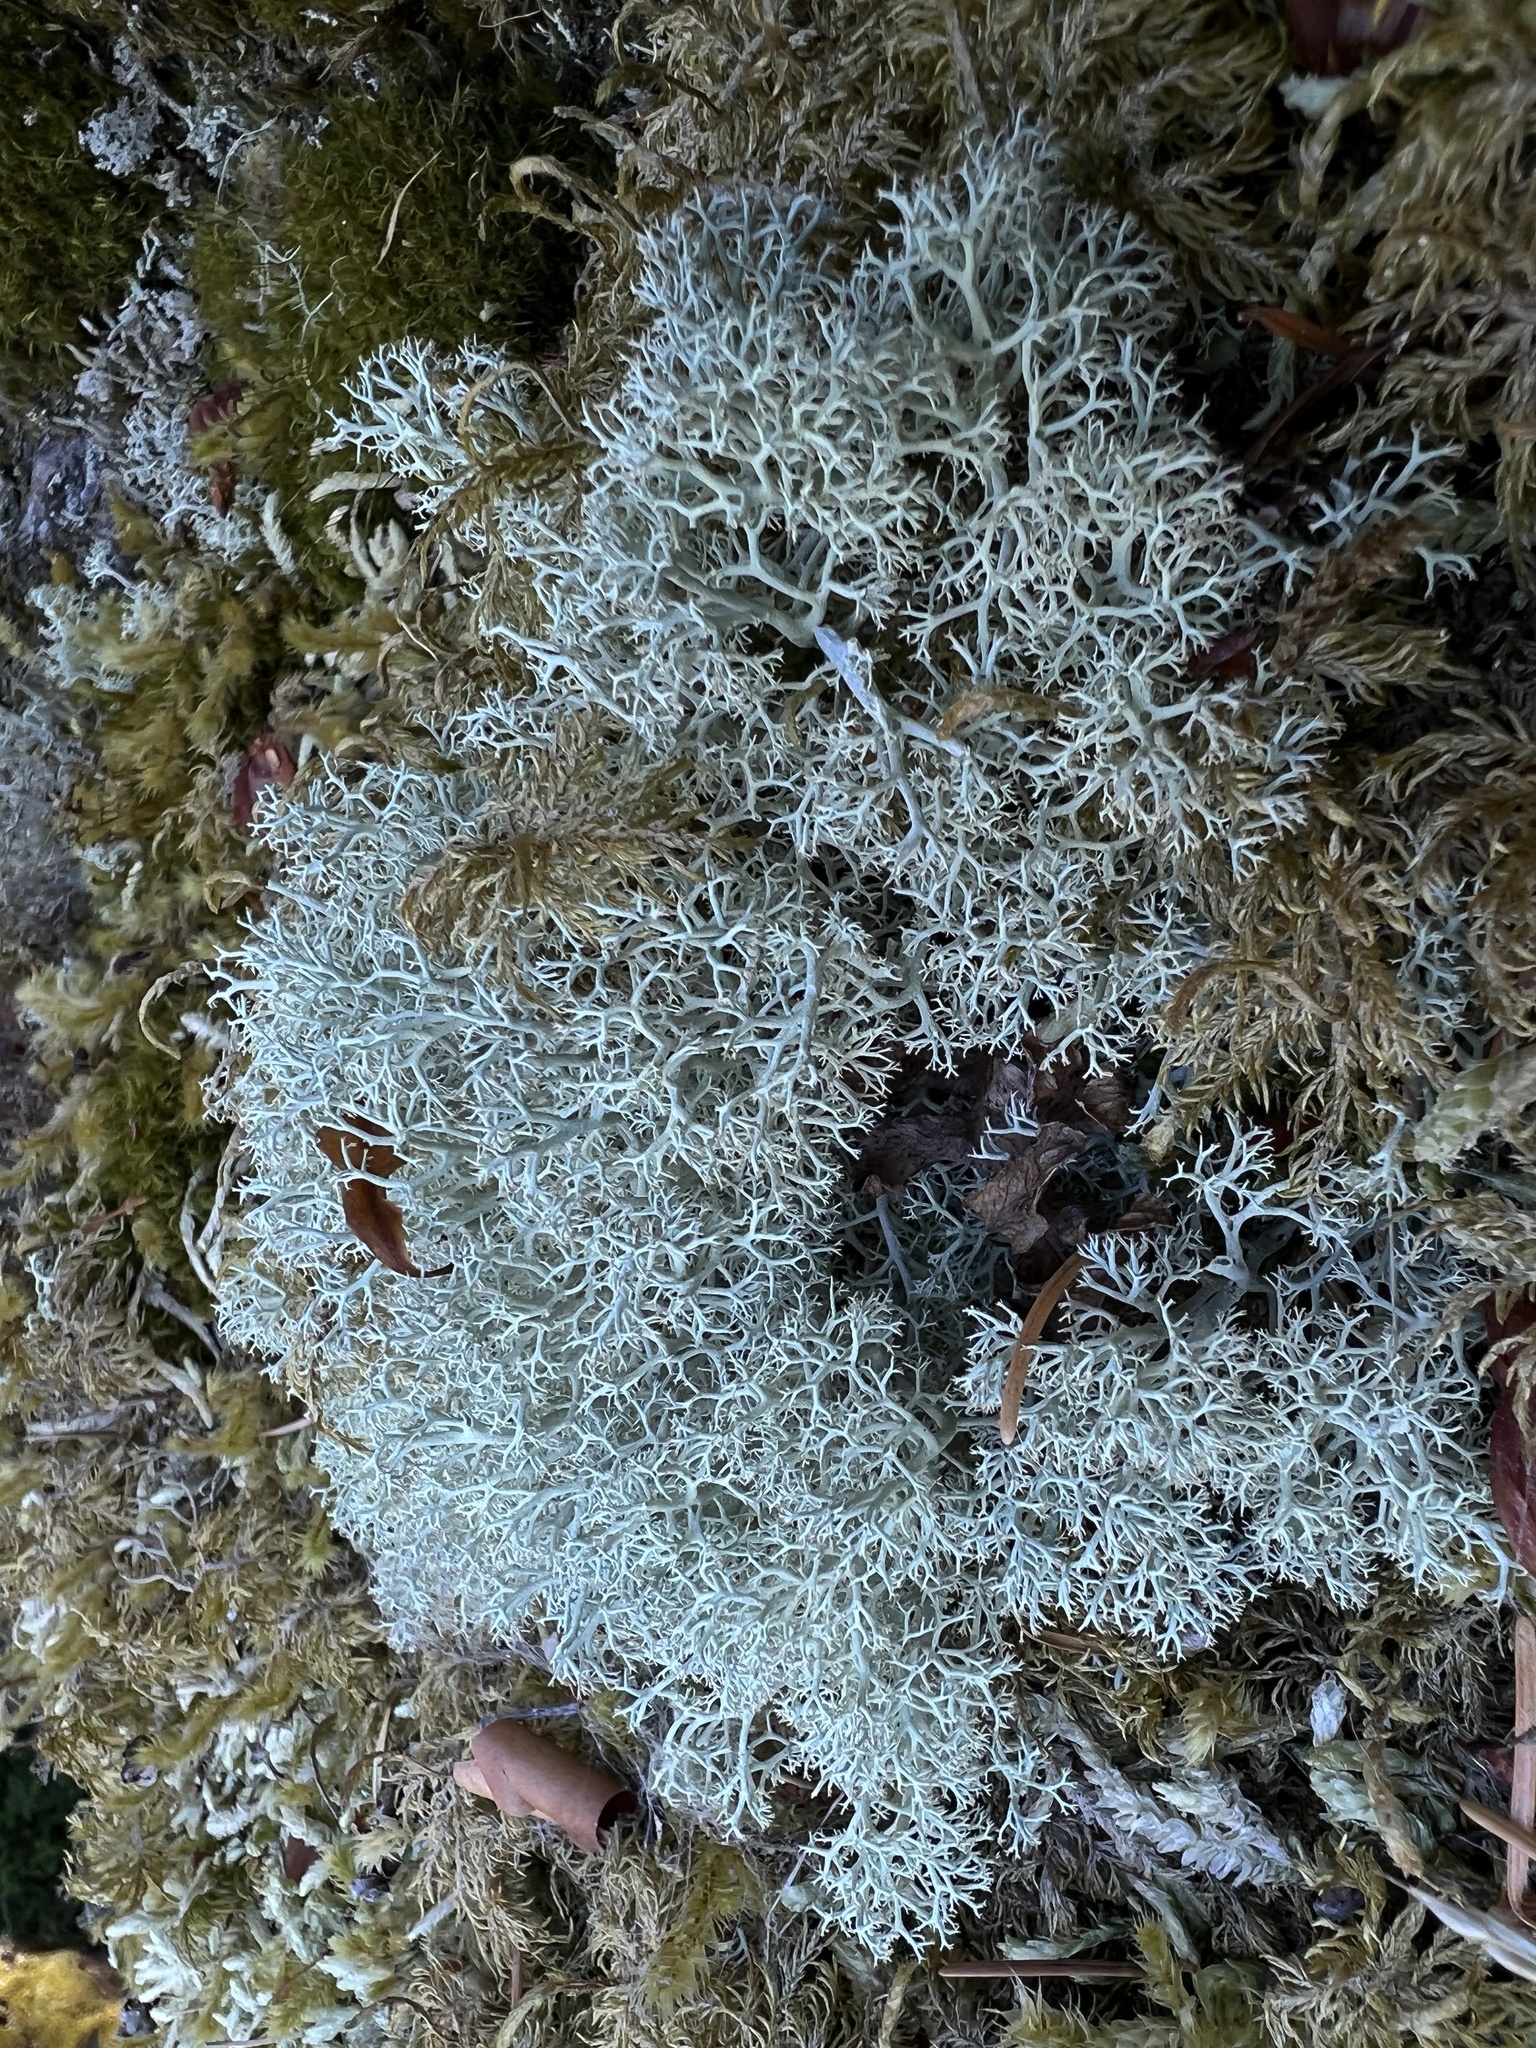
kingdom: Fungi
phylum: Ascomycota
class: Lecanoromycetes
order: Lecanorales
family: Sphaerophoraceae
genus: Sphaerophorus
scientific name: Sphaerophorus globosus
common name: Globe ball lichen
